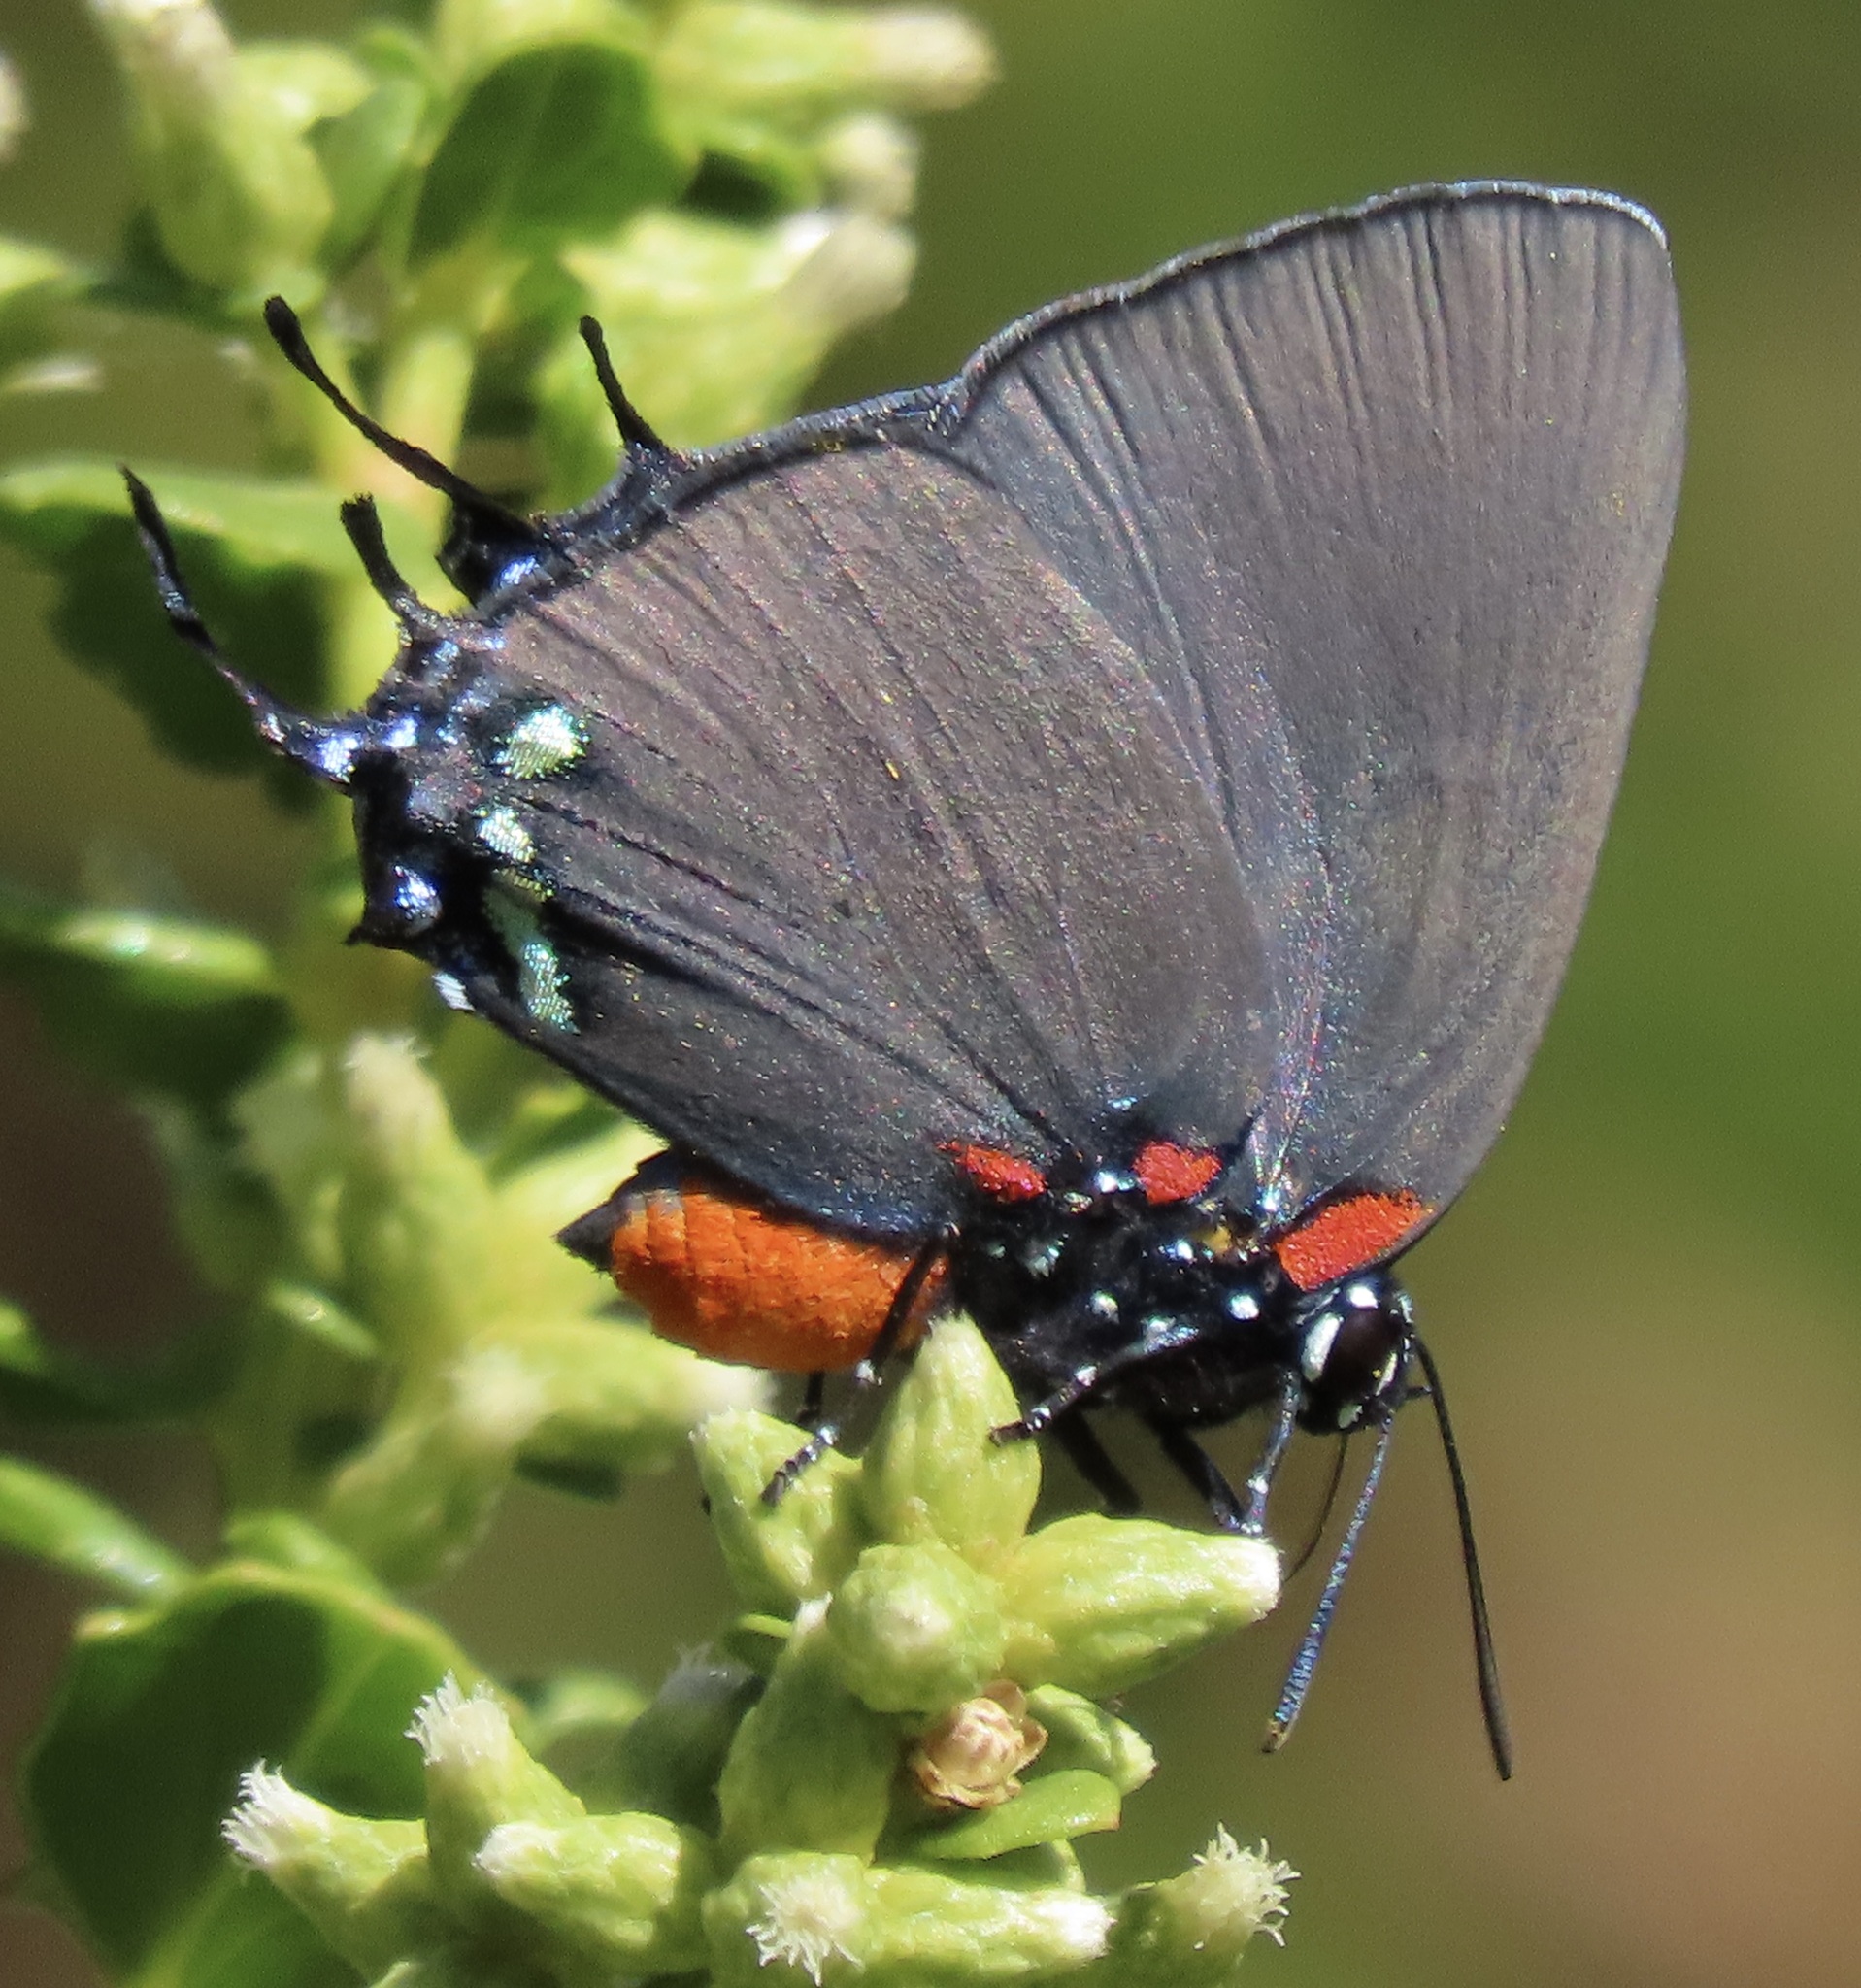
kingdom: Animalia
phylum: Arthropoda
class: Insecta
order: Lepidoptera
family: Lycaenidae
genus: Atlides
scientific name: Atlides halesus
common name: Great purple hairstreak
